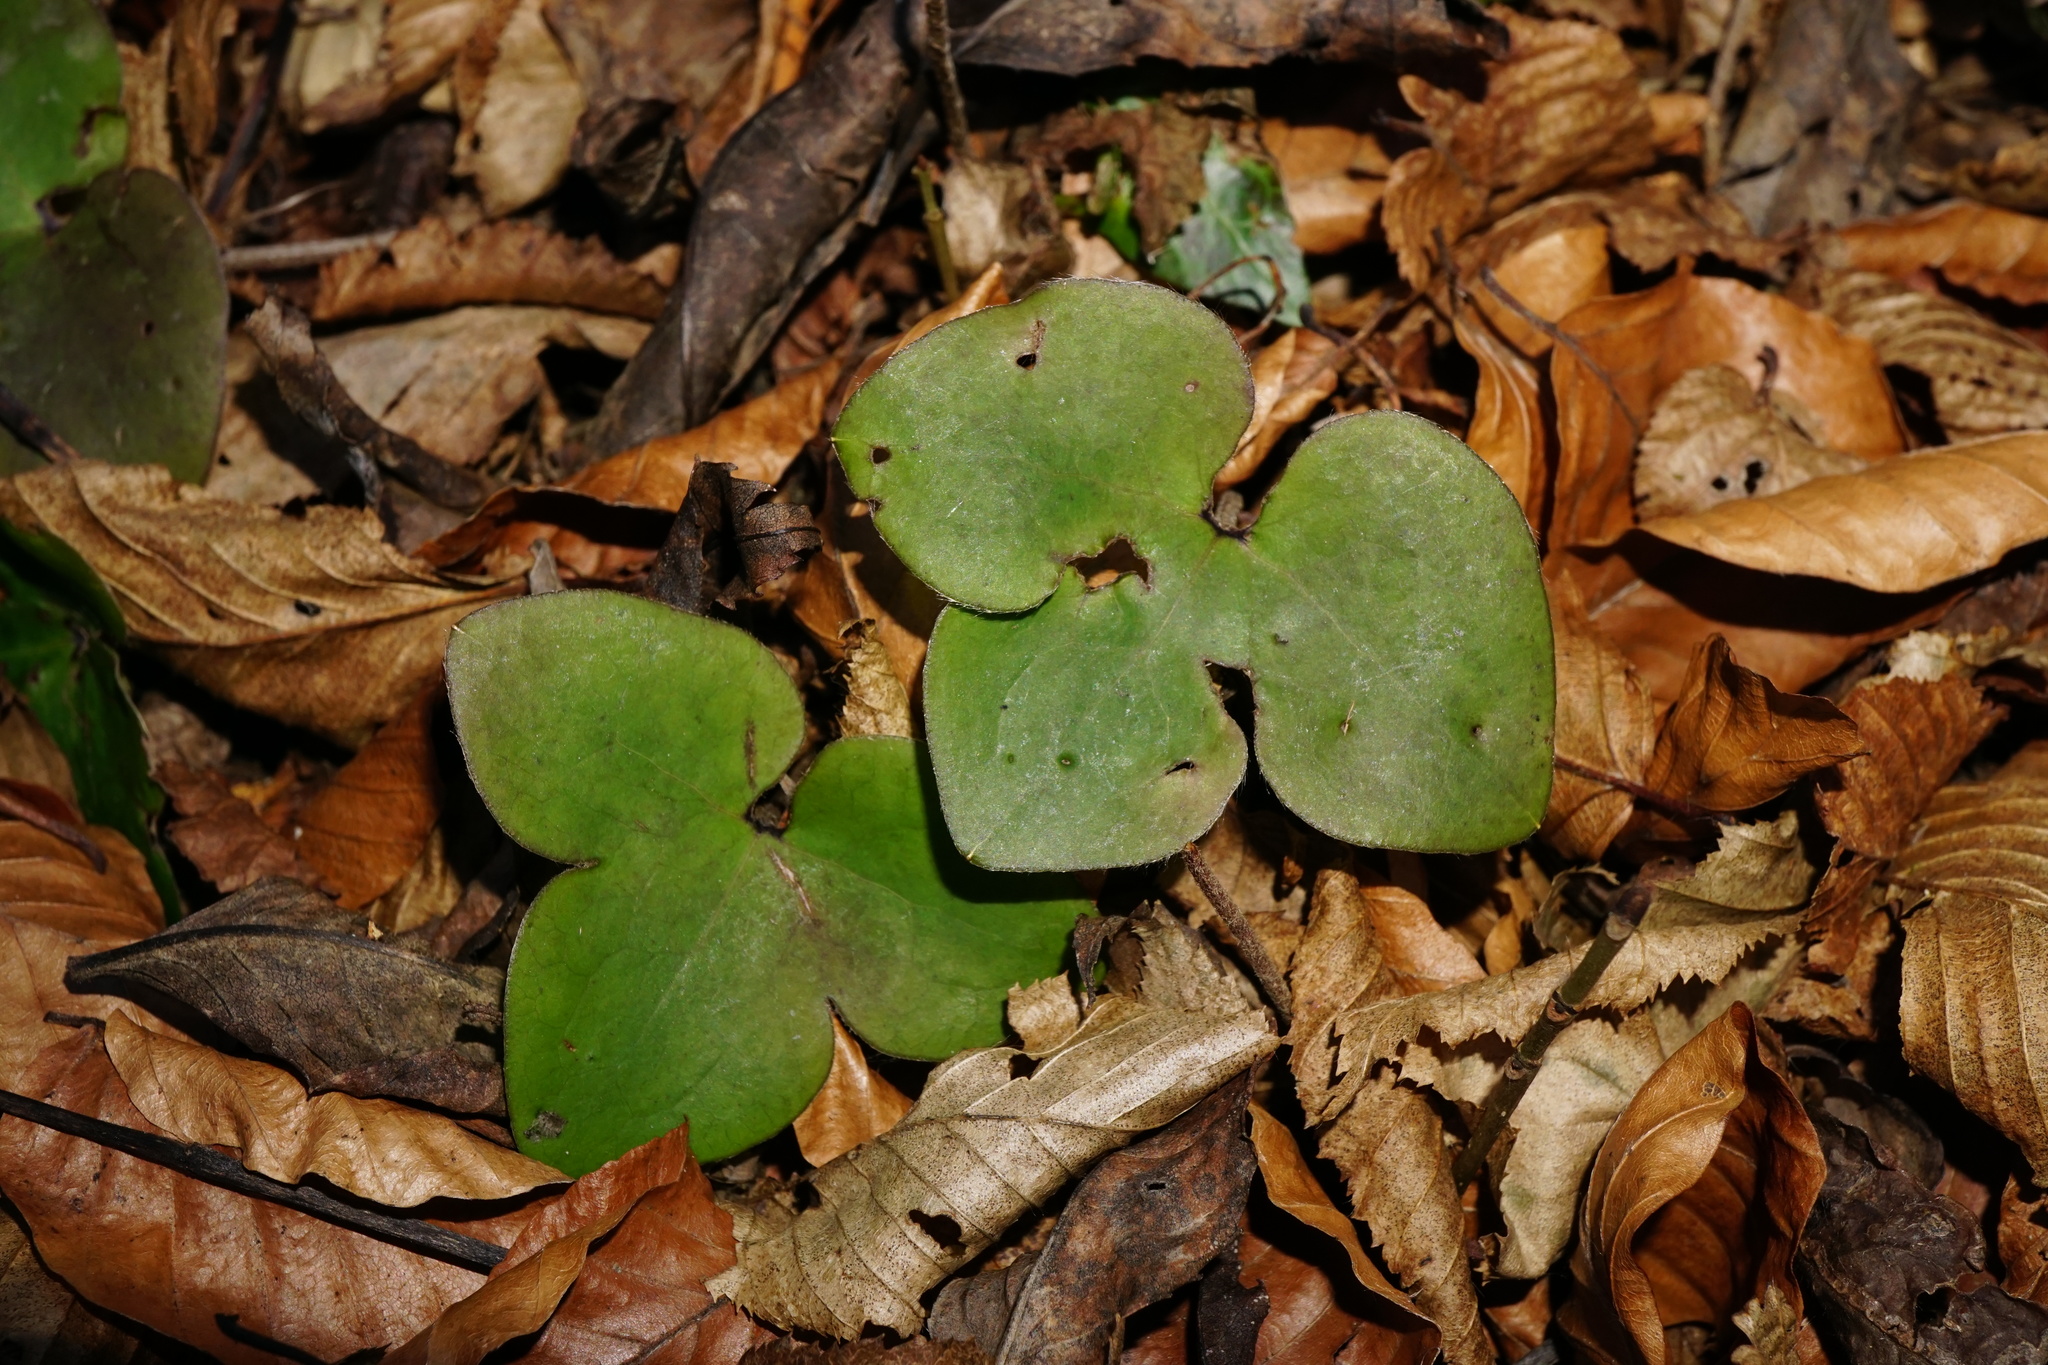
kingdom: Plantae
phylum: Tracheophyta
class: Magnoliopsida
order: Ranunculales
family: Ranunculaceae
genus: Hepatica
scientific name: Hepatica nobilis
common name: Liverleaf
